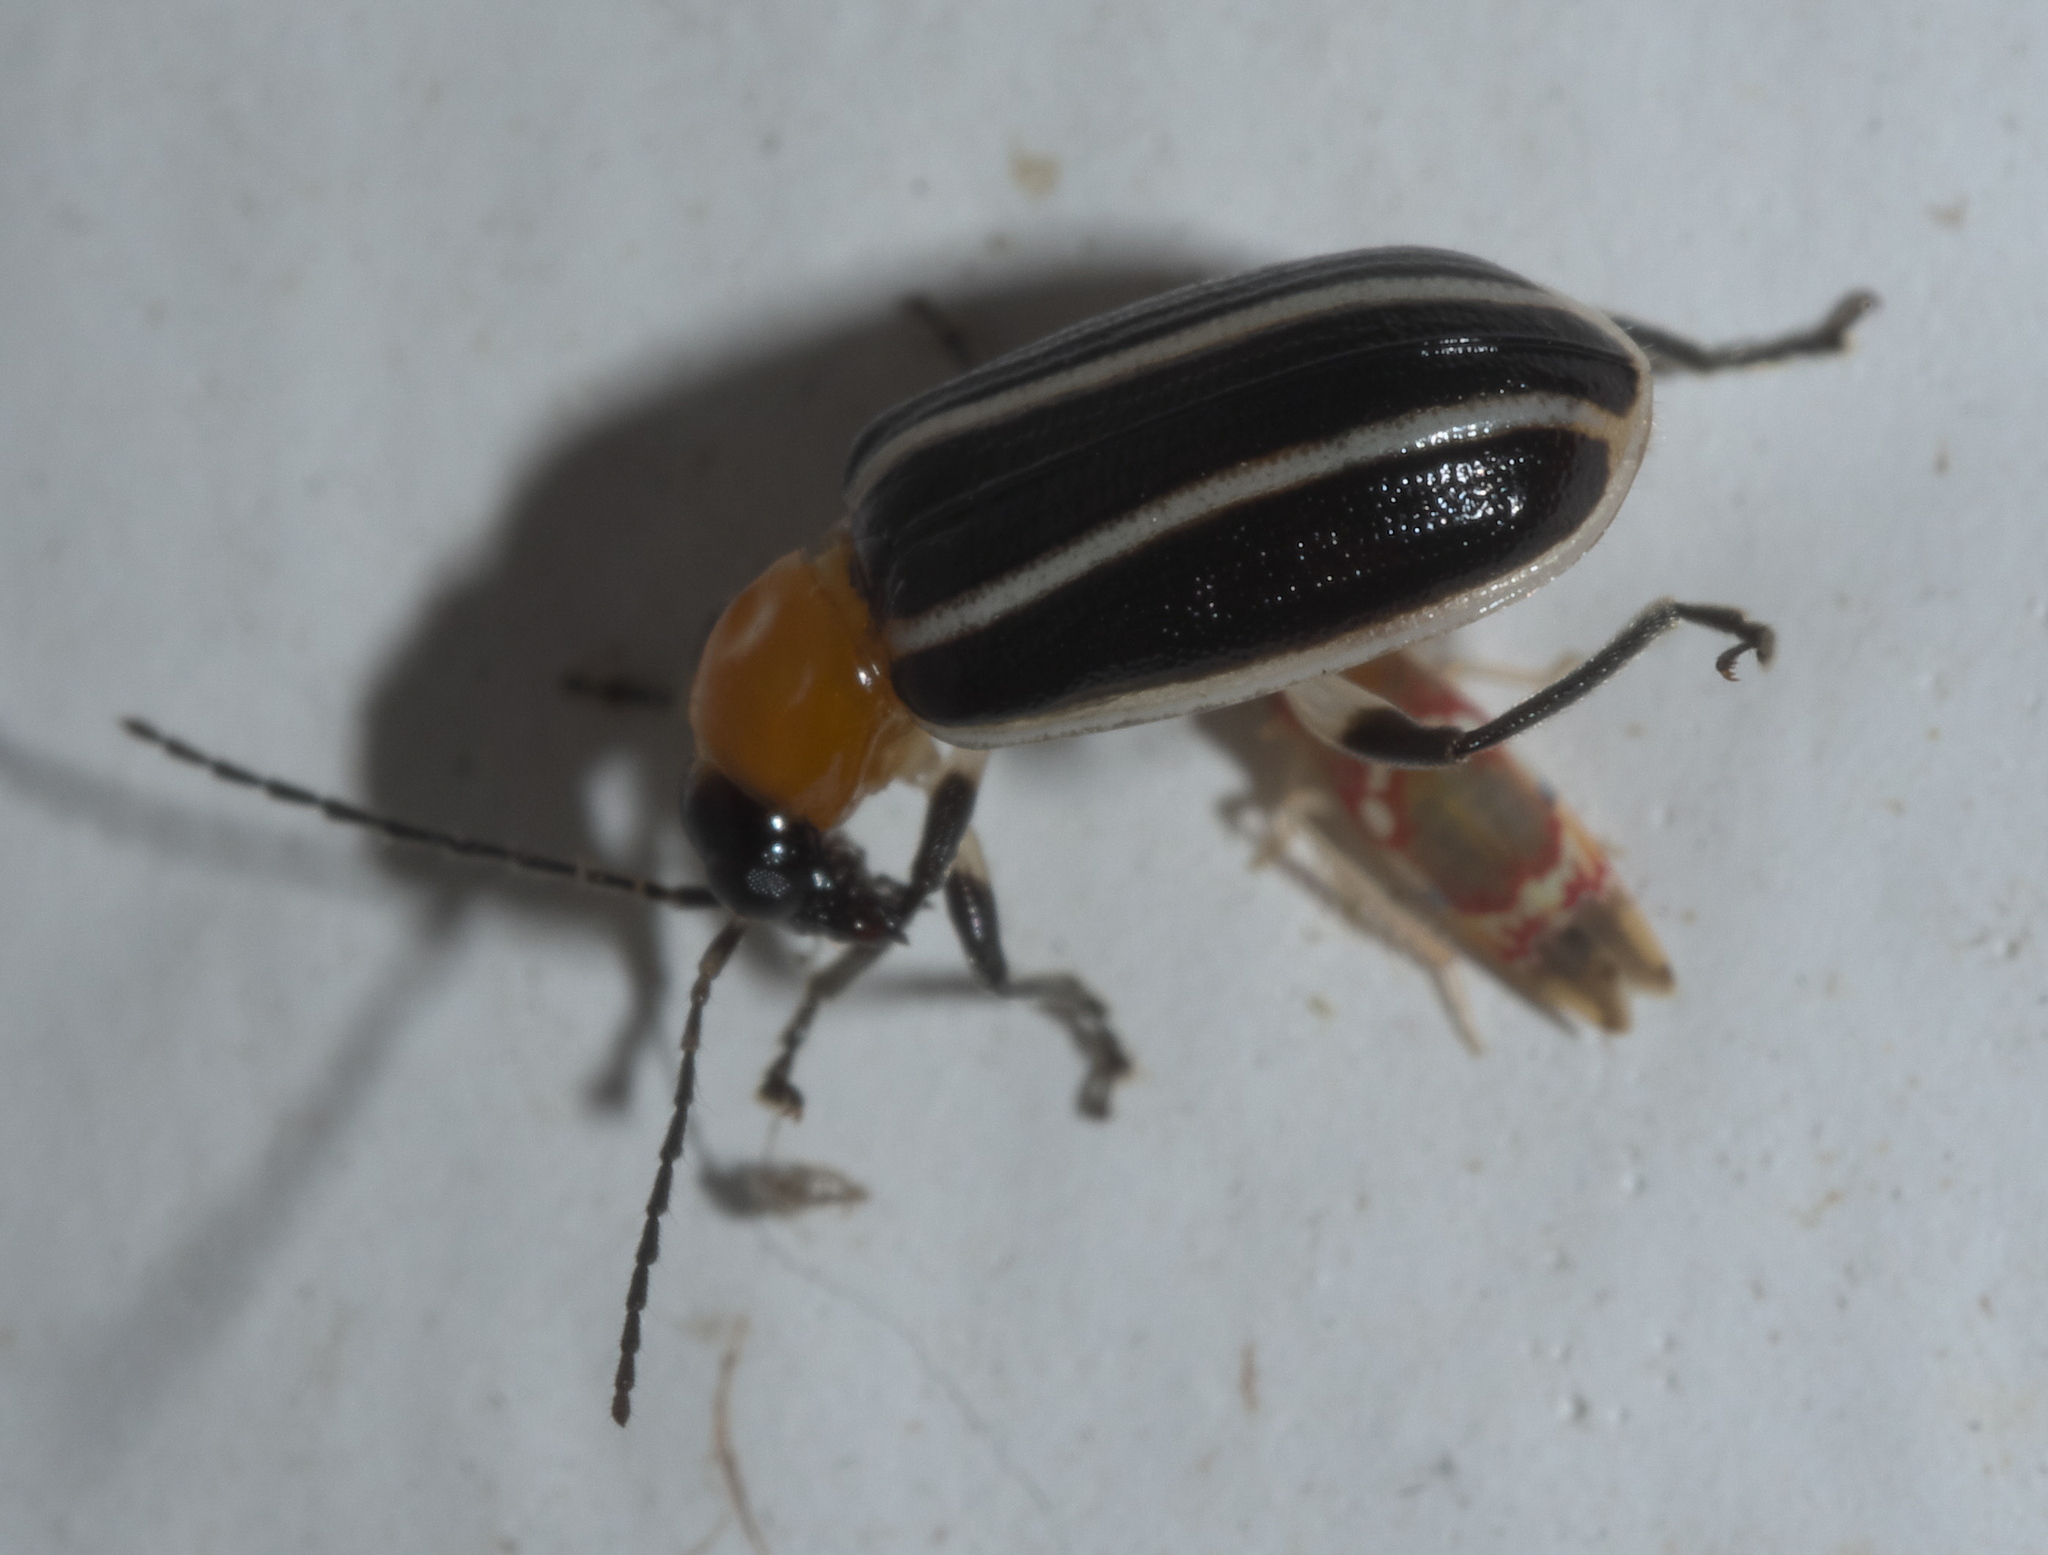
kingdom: Animalia
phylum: Arthropoda
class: Insecta
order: Coleoptera
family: Chrysomelidae
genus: Acalymma
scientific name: Acalymma vinctum
